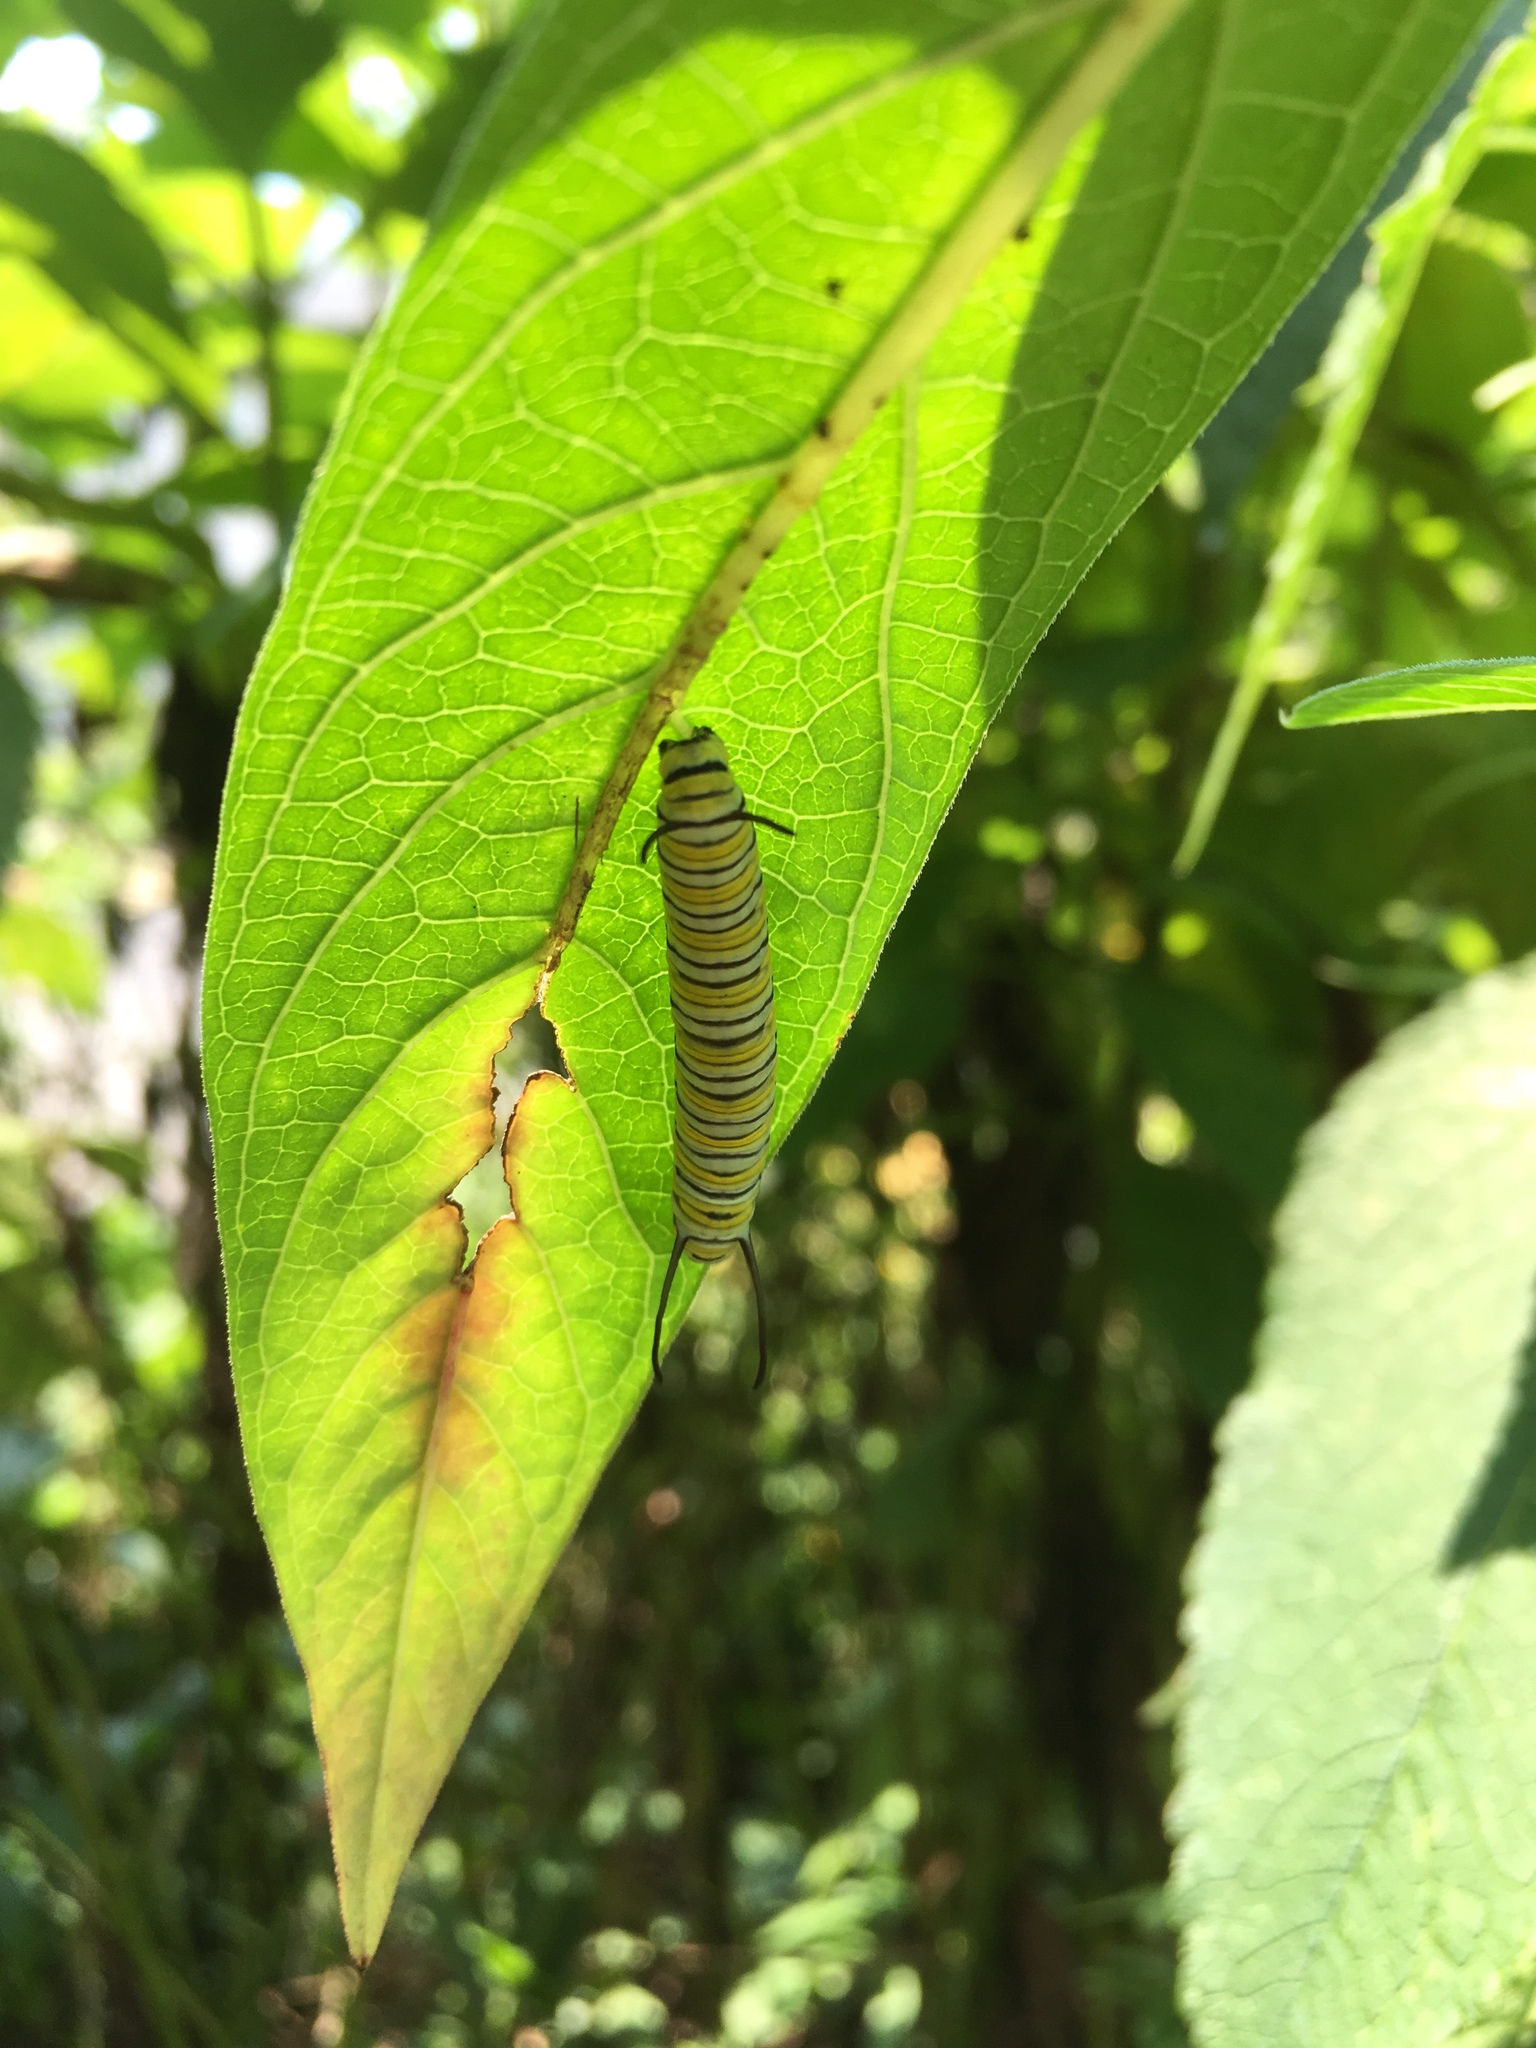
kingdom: Animalia
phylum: Arthropoda
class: Insecta
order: Lepidoptera
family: Nymphalidae
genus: Danaus
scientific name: Danaus plexippus
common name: Monarch
